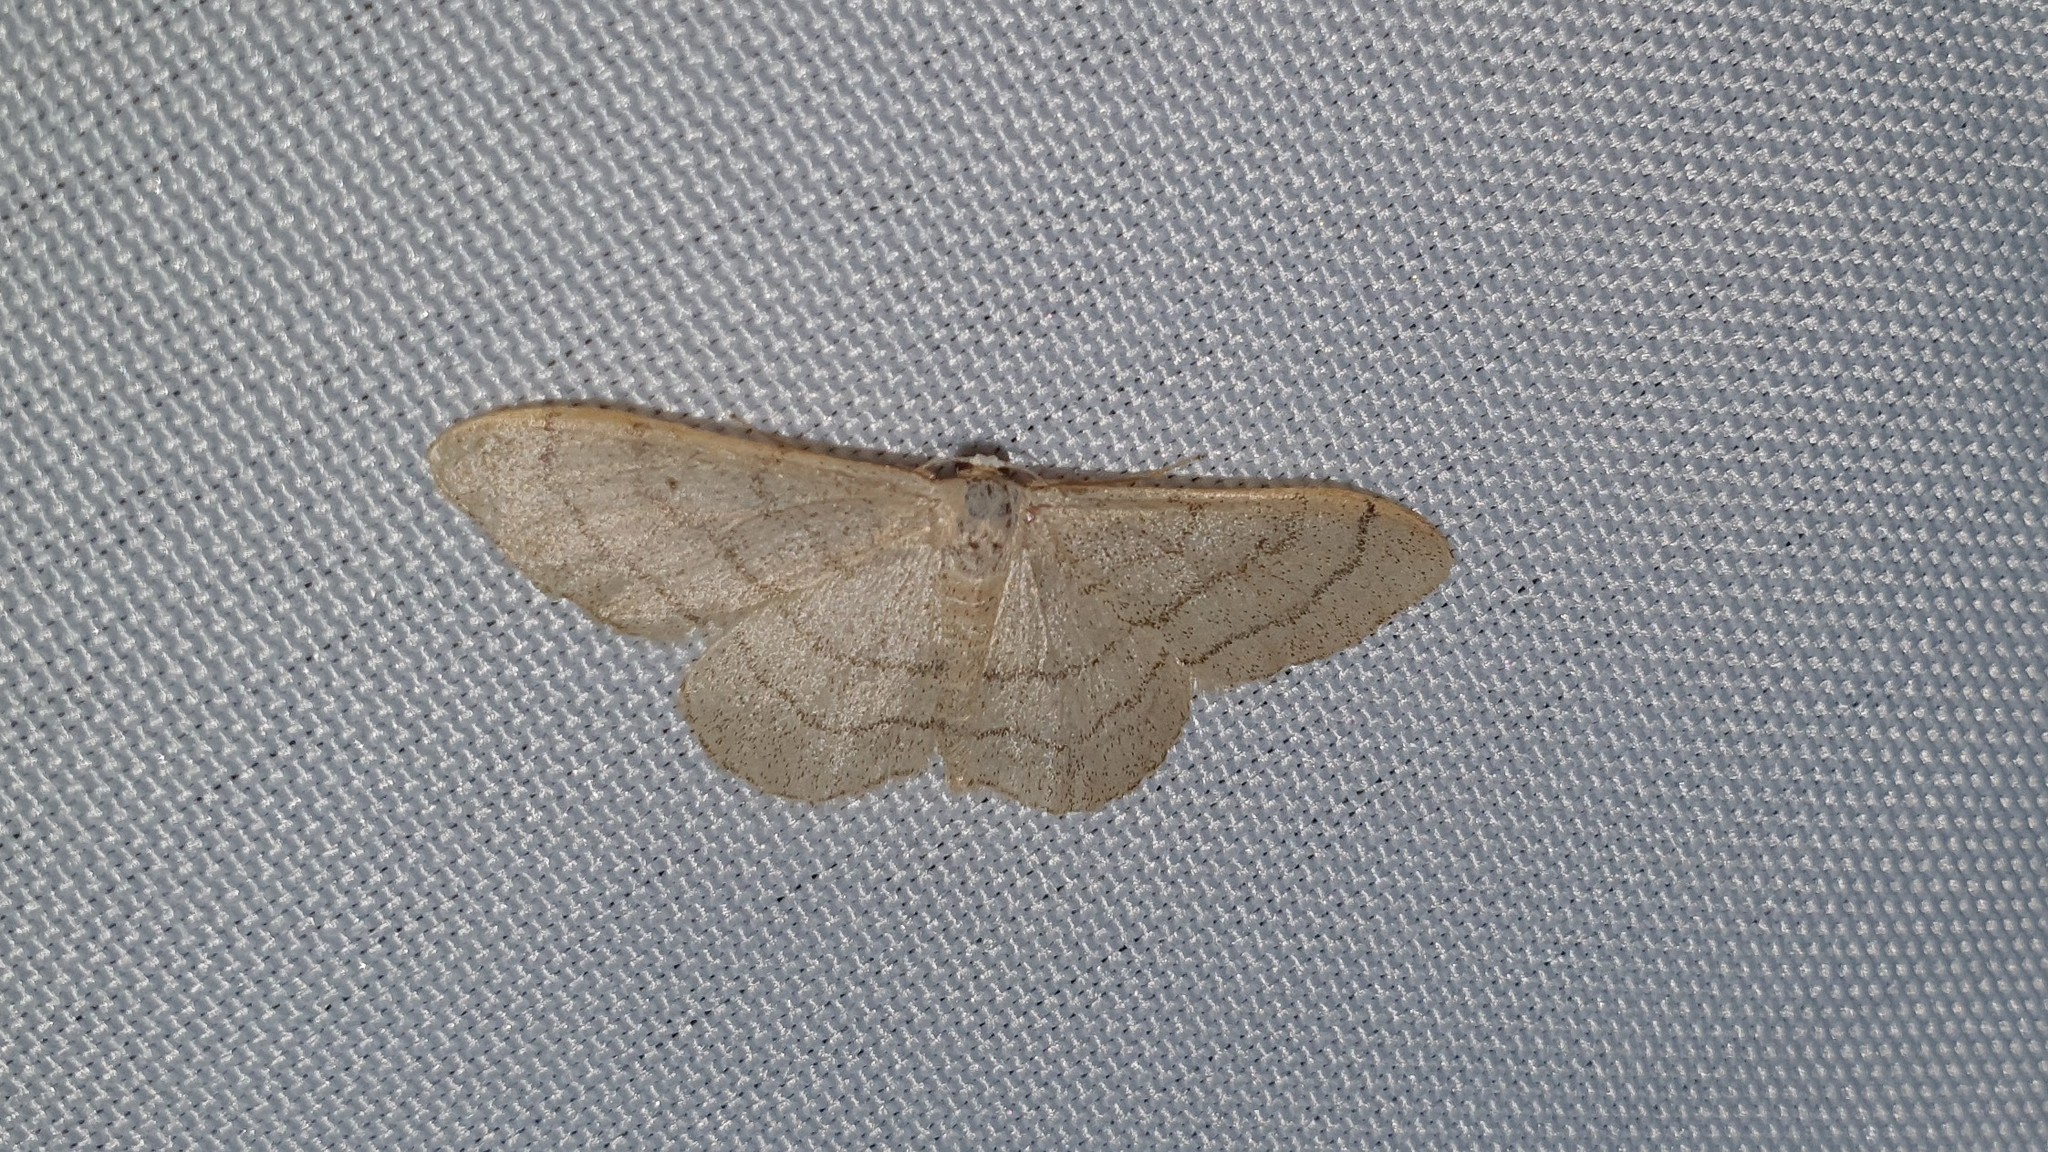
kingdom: Animalia
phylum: Arthropoda
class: Insecta
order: Lepidoptera
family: Geometridae
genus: Idaea
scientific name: Idaea aversata
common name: Riband wave
